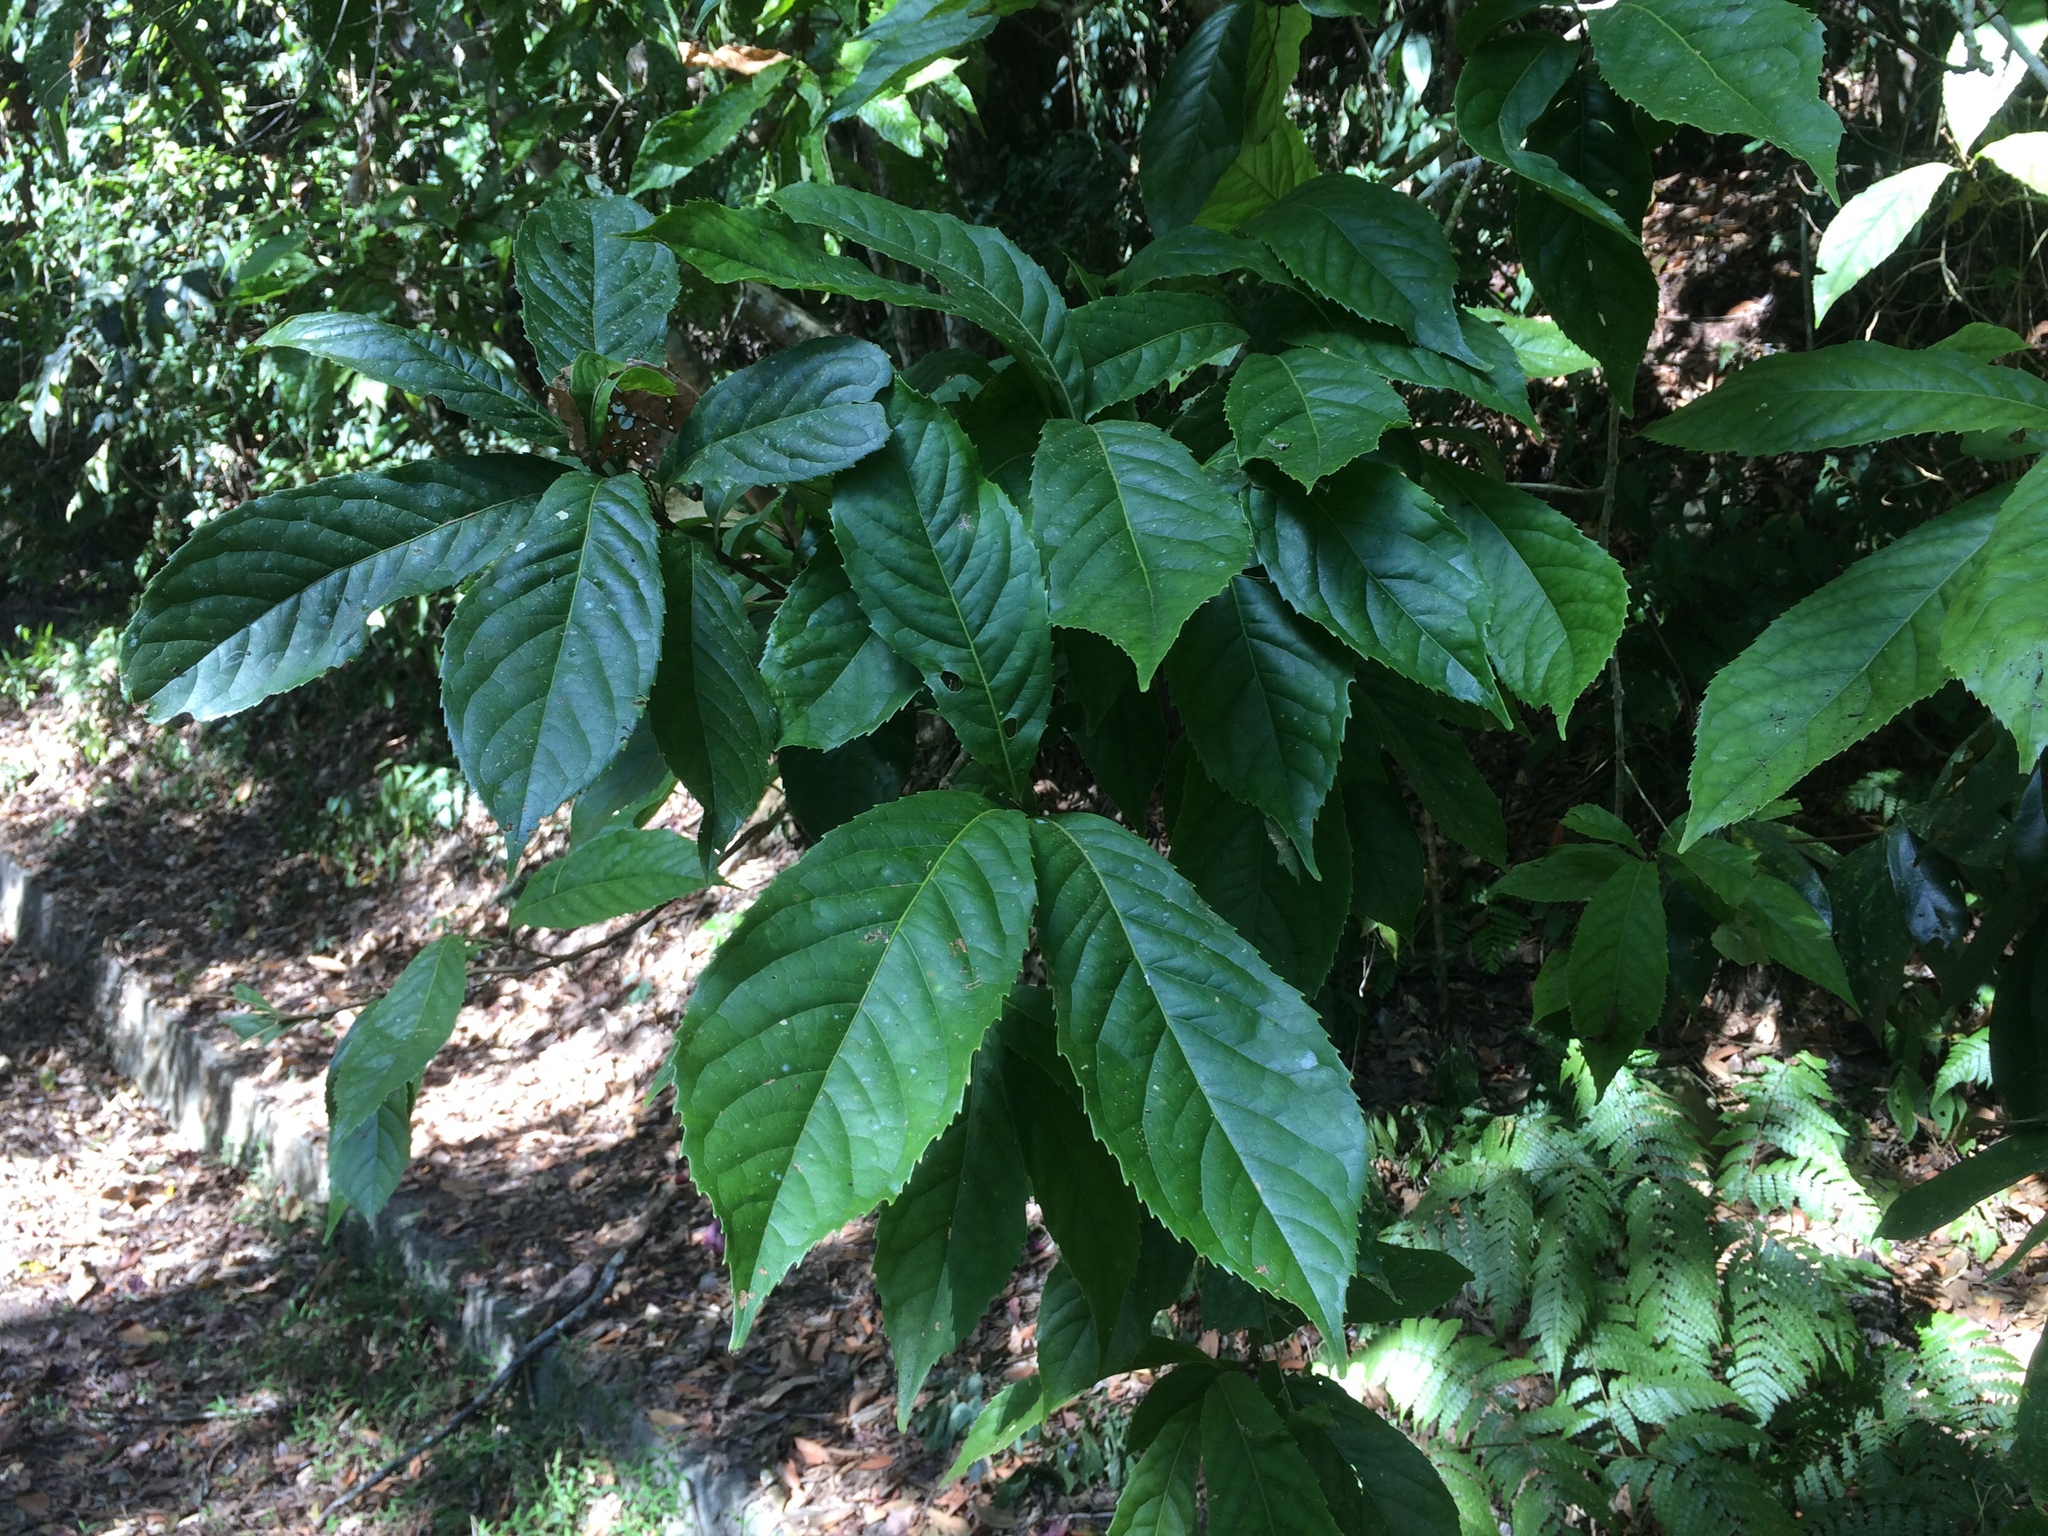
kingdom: Plantae
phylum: Tracheophyta
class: Magnoliopsida
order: Proteales
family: Proteaceae
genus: Helicia
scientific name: Helicia formosana
